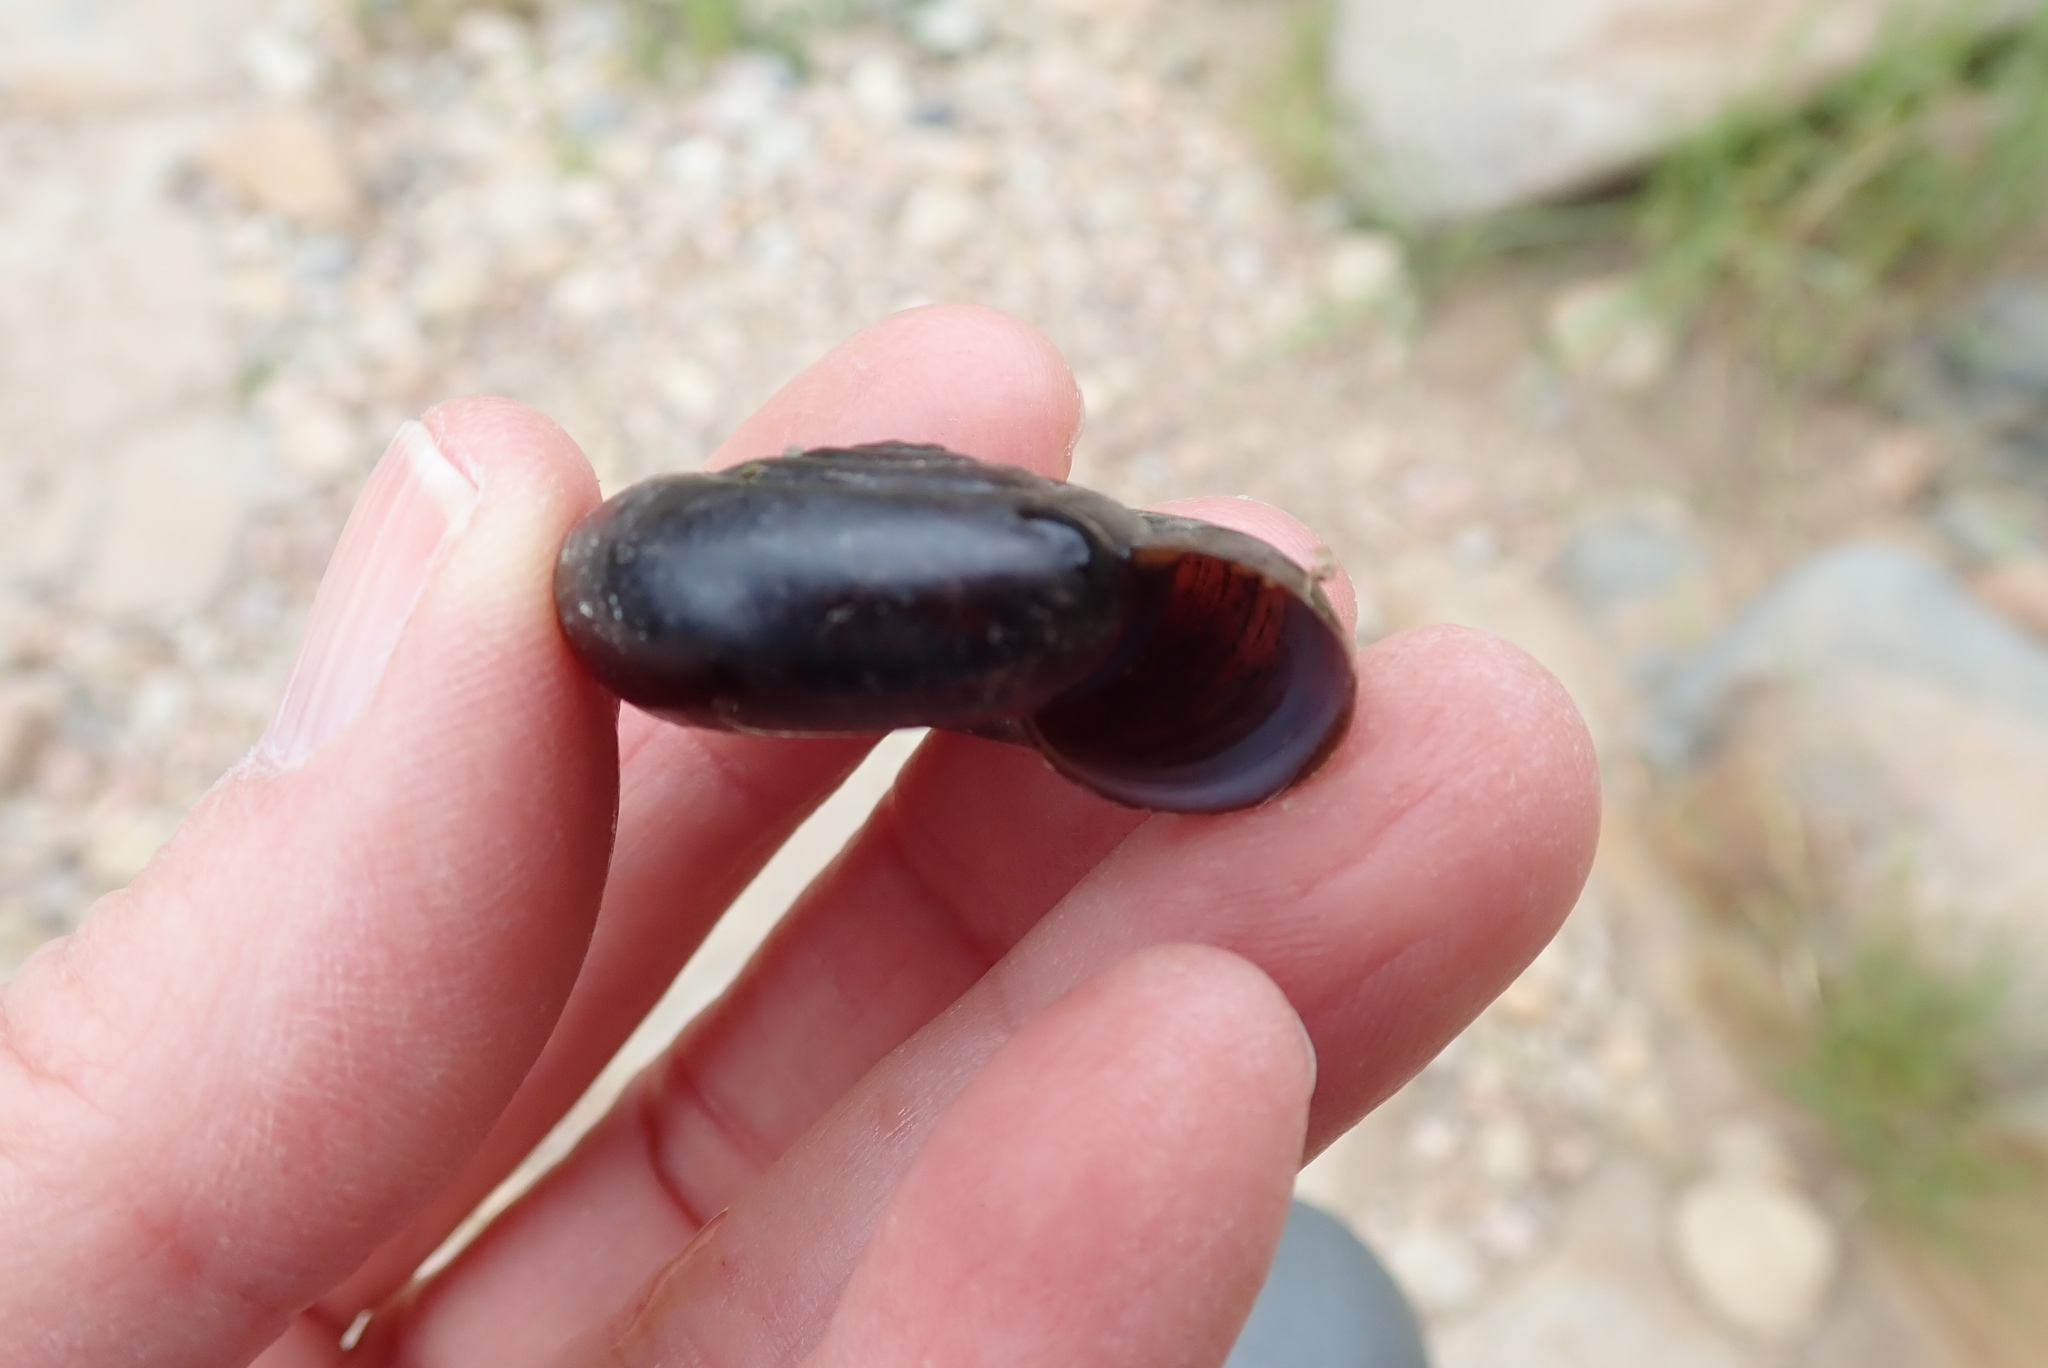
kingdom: Animalia
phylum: Mollusca
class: Gastropoda
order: Stylommatophora
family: Megomphicidae
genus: Glyptostoma
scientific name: Glyptostoma newberryanum
